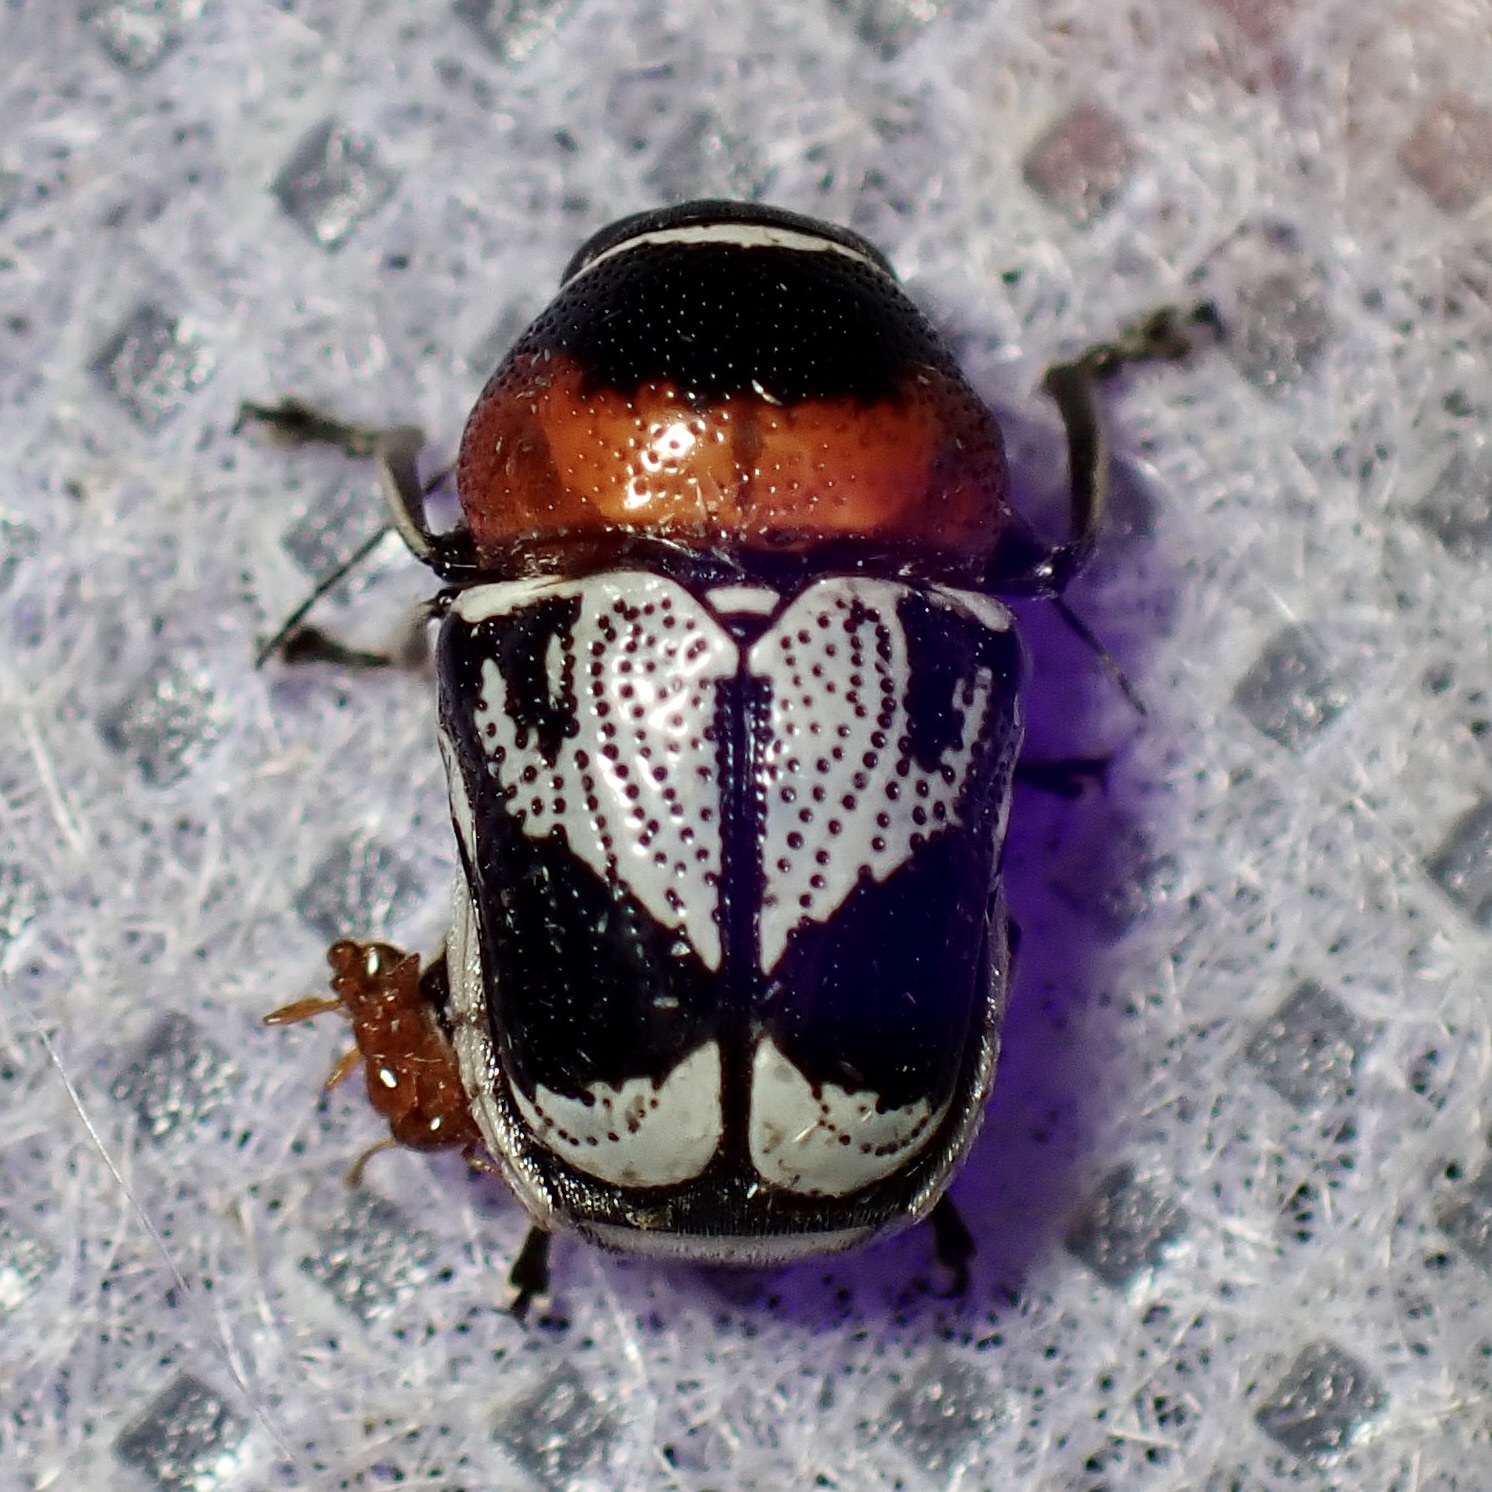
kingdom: Animalia
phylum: Arthropoda
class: Insecta
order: Coleoptera
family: Chrysomelidae
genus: Griburius
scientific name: Griburius montezuma
